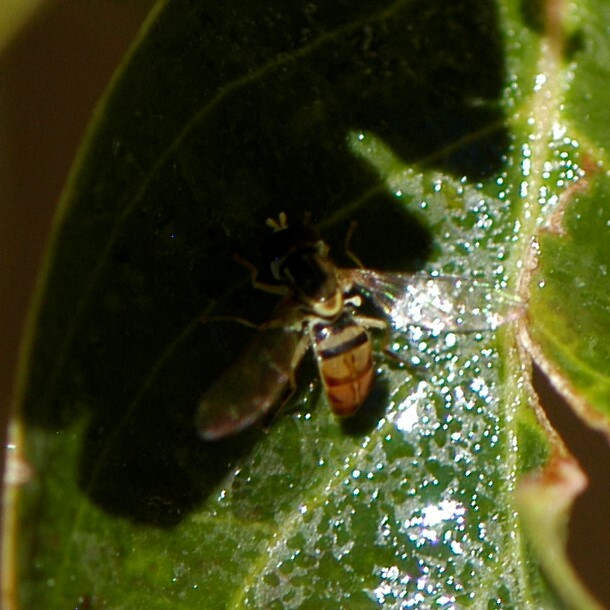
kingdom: Animalia
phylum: Arthropoda
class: Insecta
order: Diptera
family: Syrphidae
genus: Toxomerus
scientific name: Toxomerus marginatus
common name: Syrphid fly
